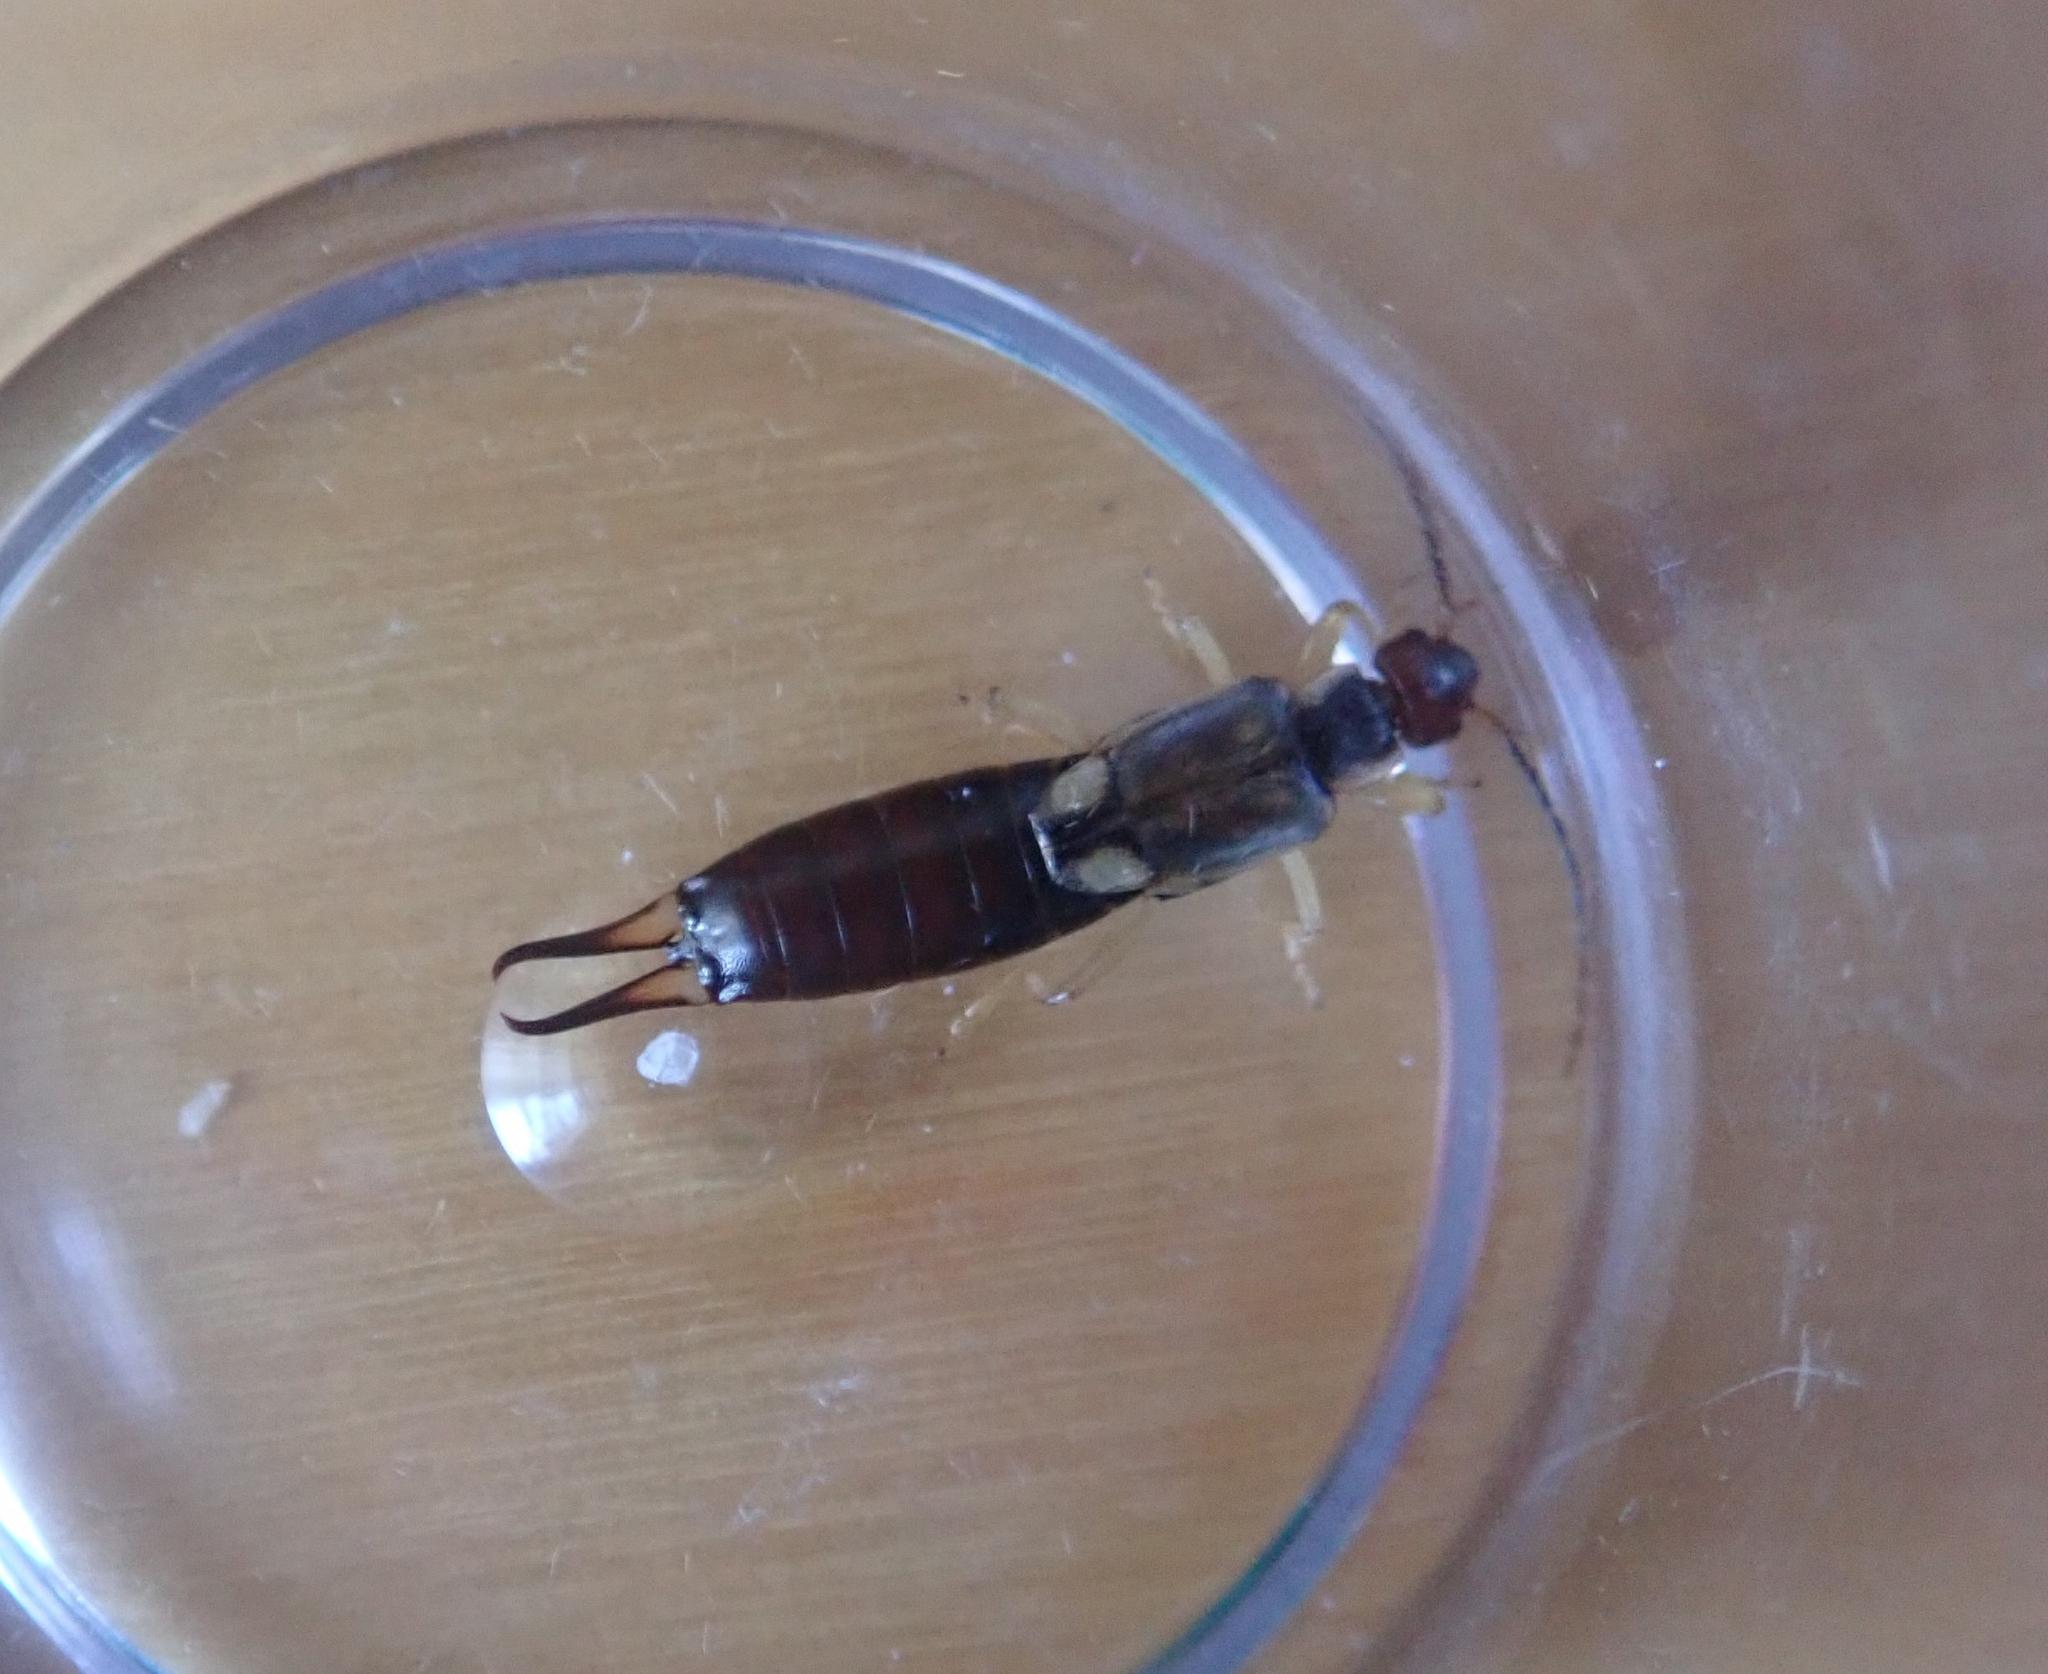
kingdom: Animalia
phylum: Arthropoda
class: Insecta
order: Dermaptera
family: Forficulidae
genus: Forficula
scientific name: Forficula
